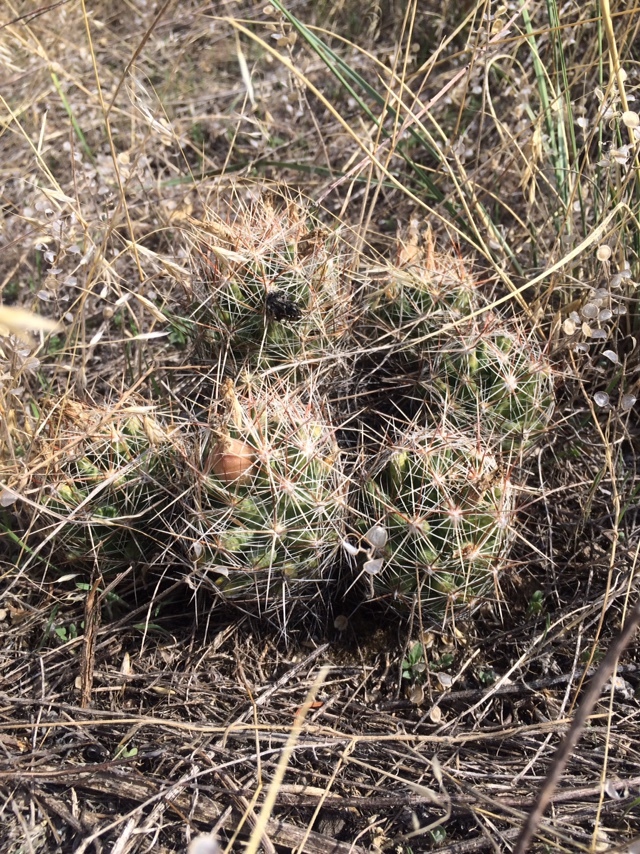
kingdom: Plantae
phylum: Tracheophyta
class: Magnoliopsida
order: Caryophyllales
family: Cactaceae
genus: Pelecyphora
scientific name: Pelecyphora vivipara
